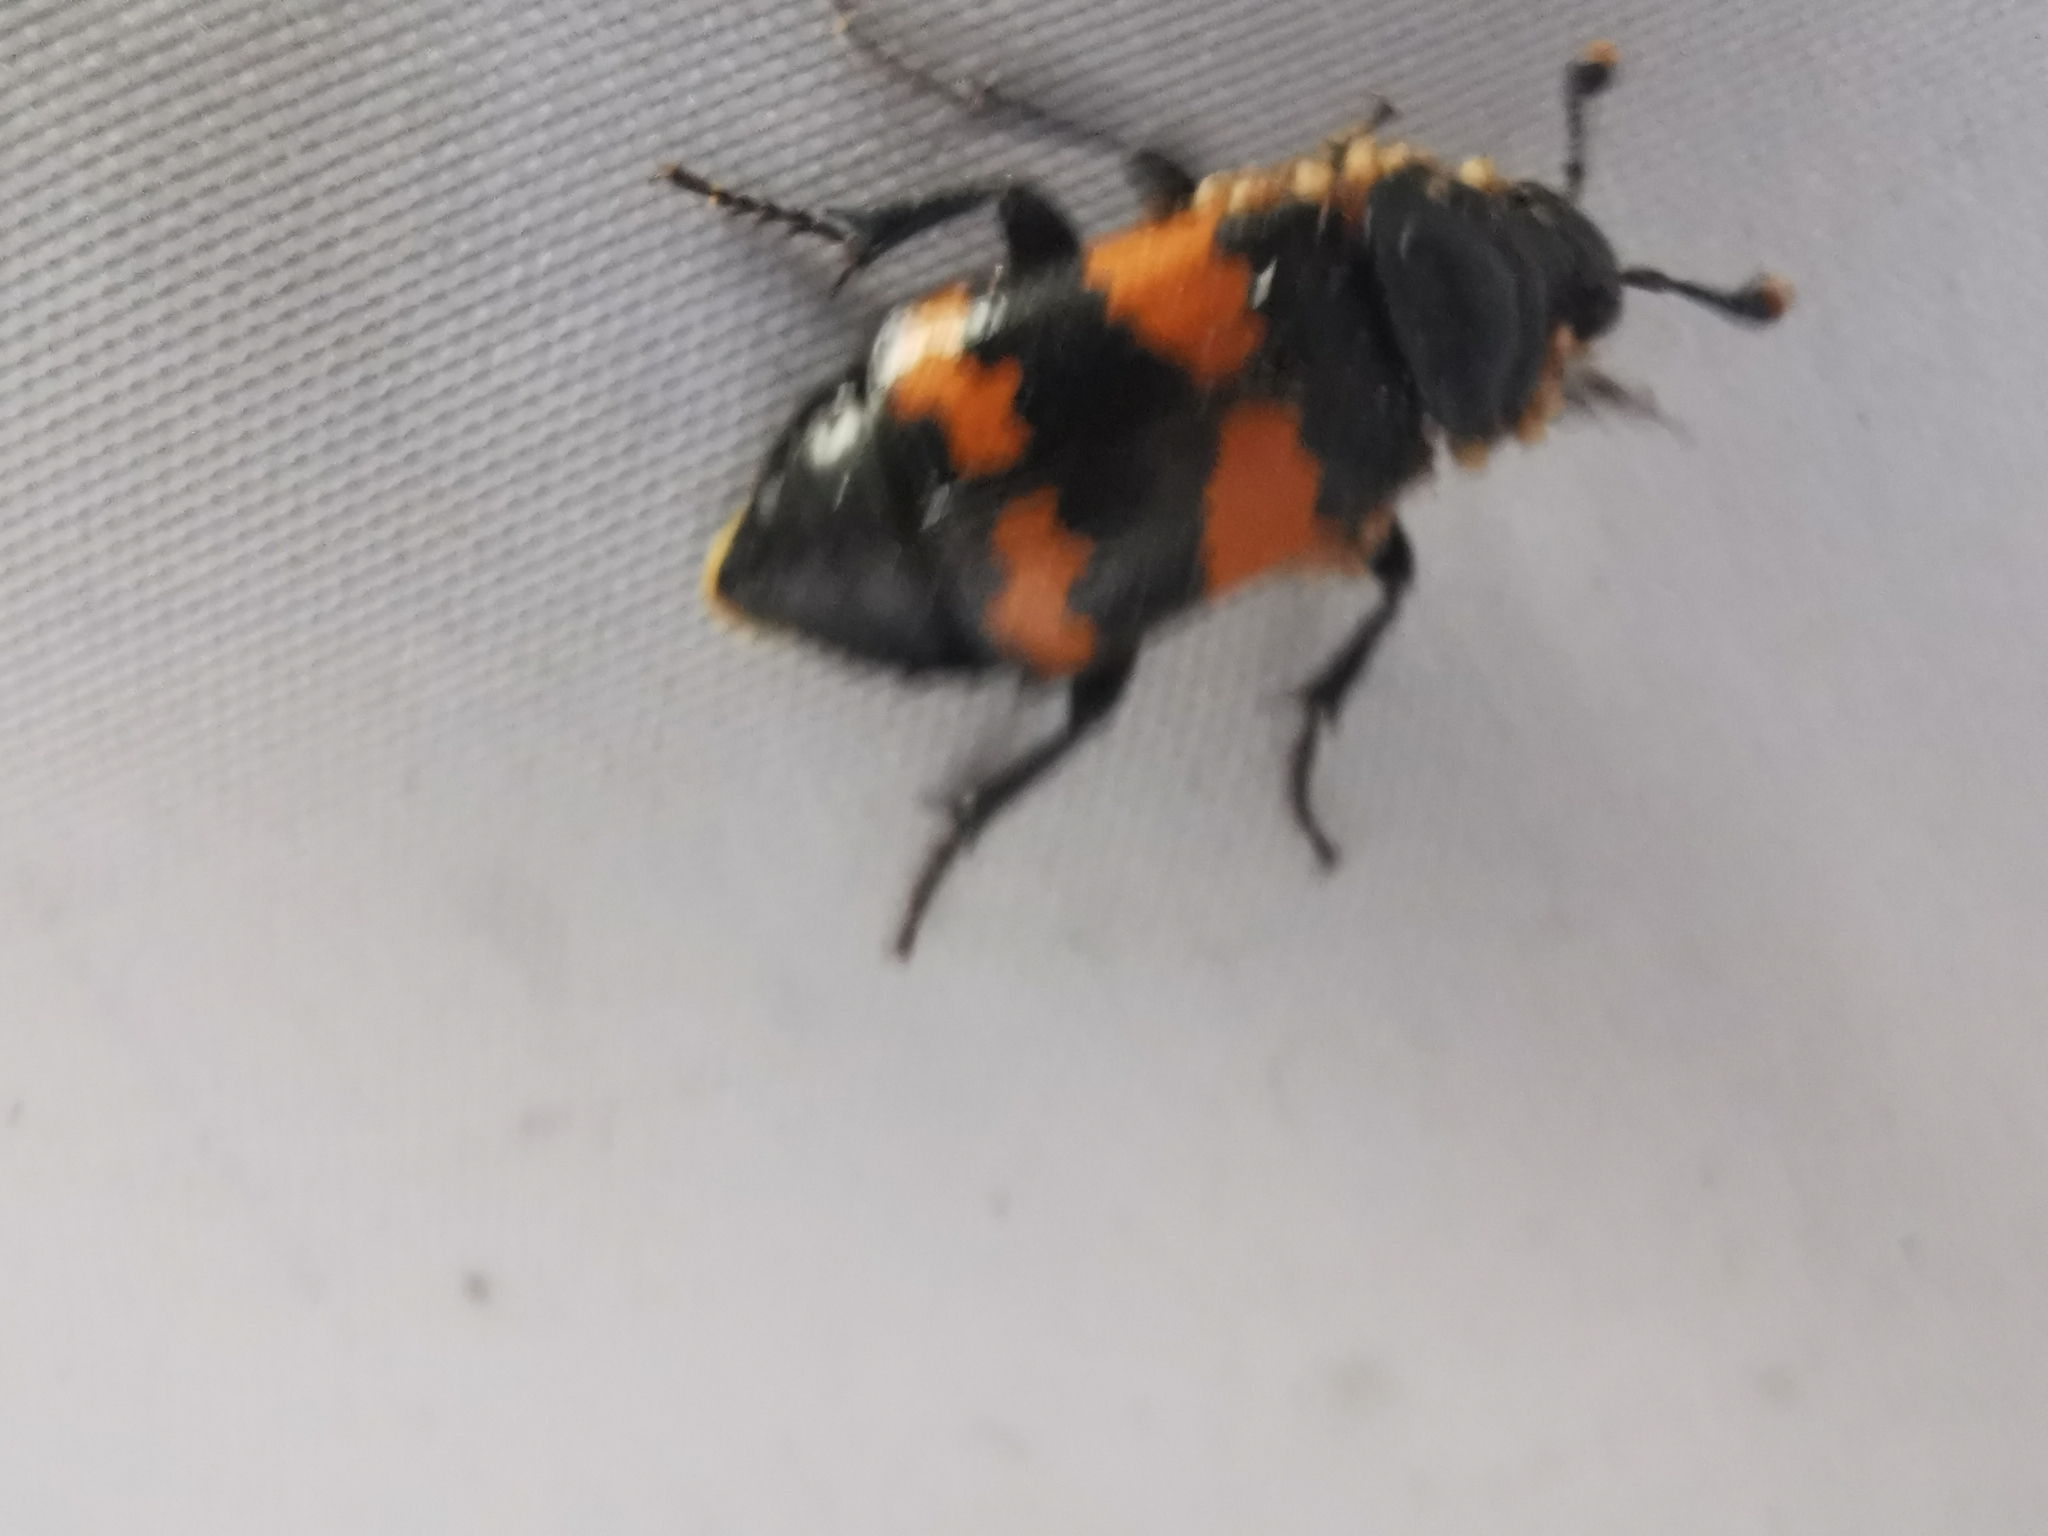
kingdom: Animalia
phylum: Arthropoda
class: Insecta
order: Coleoptera
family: Staphylinidae
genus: Nicrophorus
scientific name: Nicrophorus investigator
